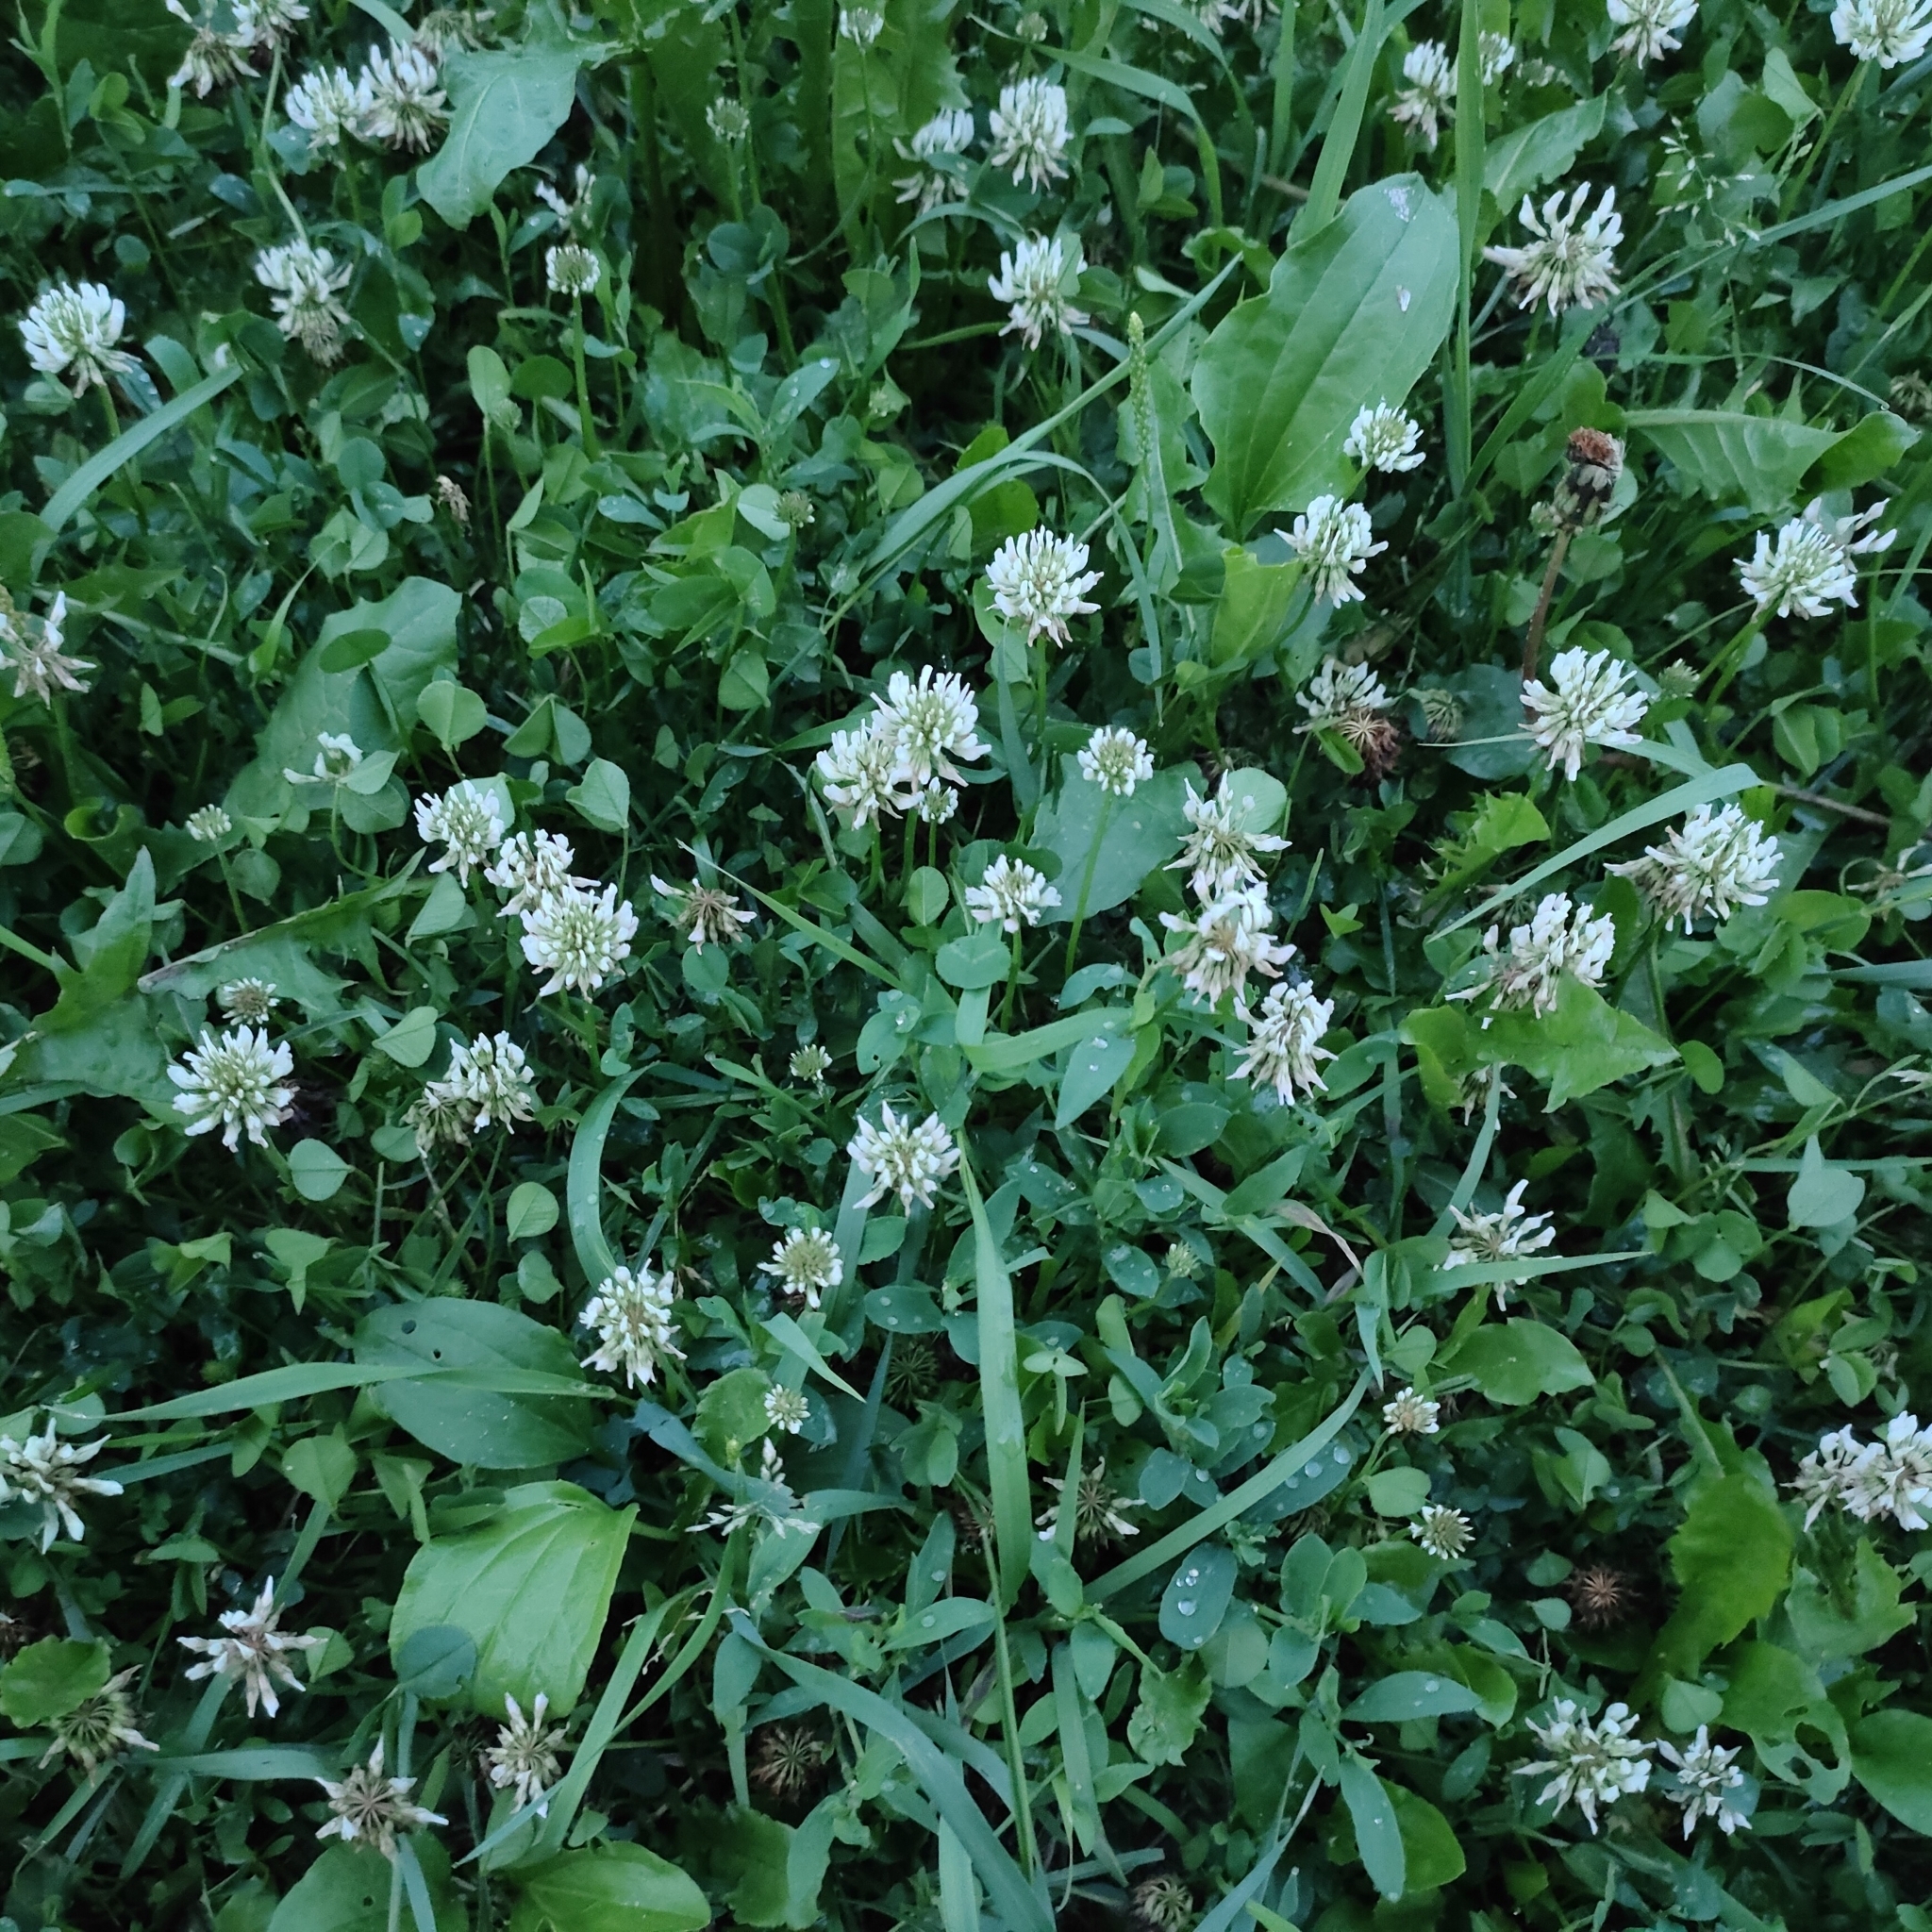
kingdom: Plantae
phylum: Tracheophyta
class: Magnoliopsida
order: Fabales
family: Fabaceae
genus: Trifolium
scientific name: Trifolium repens
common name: White clover
